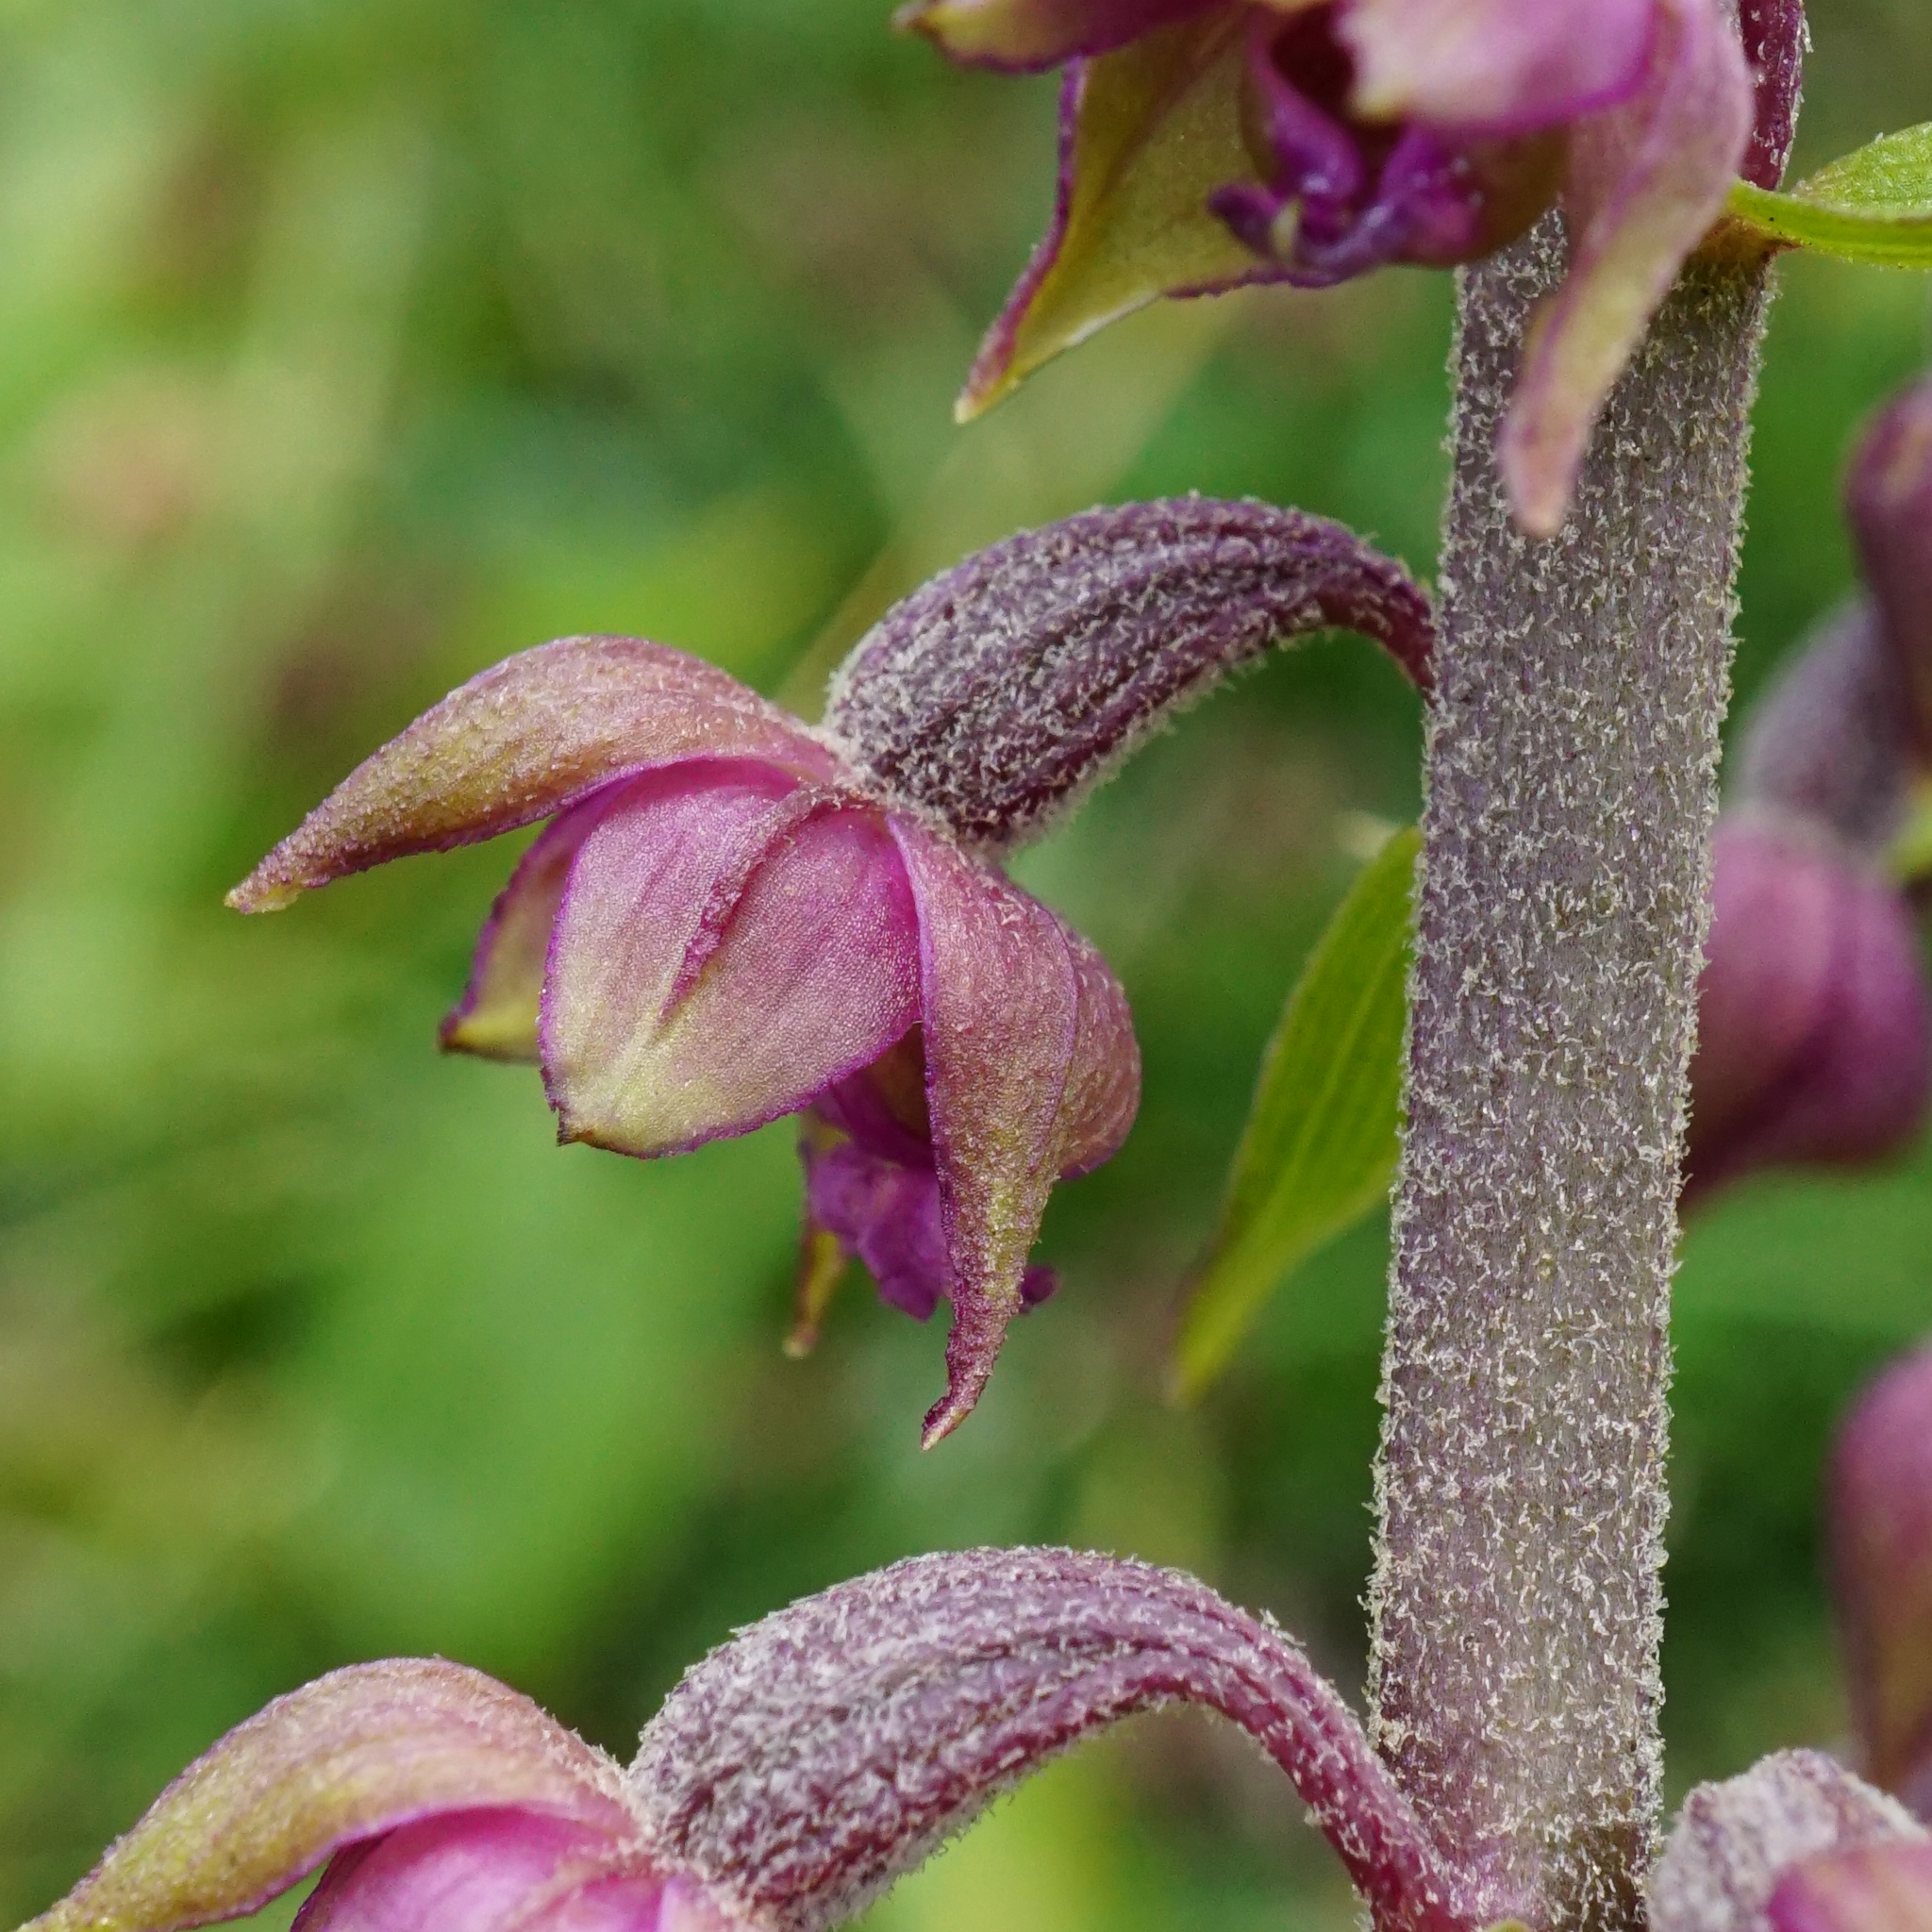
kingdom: Plantae
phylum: Tracheophyta
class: Liliopsida
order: Asparagales
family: Orchidaceae
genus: Epipactis
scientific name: Epipactis atrorubens
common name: Dark-red helleborine
